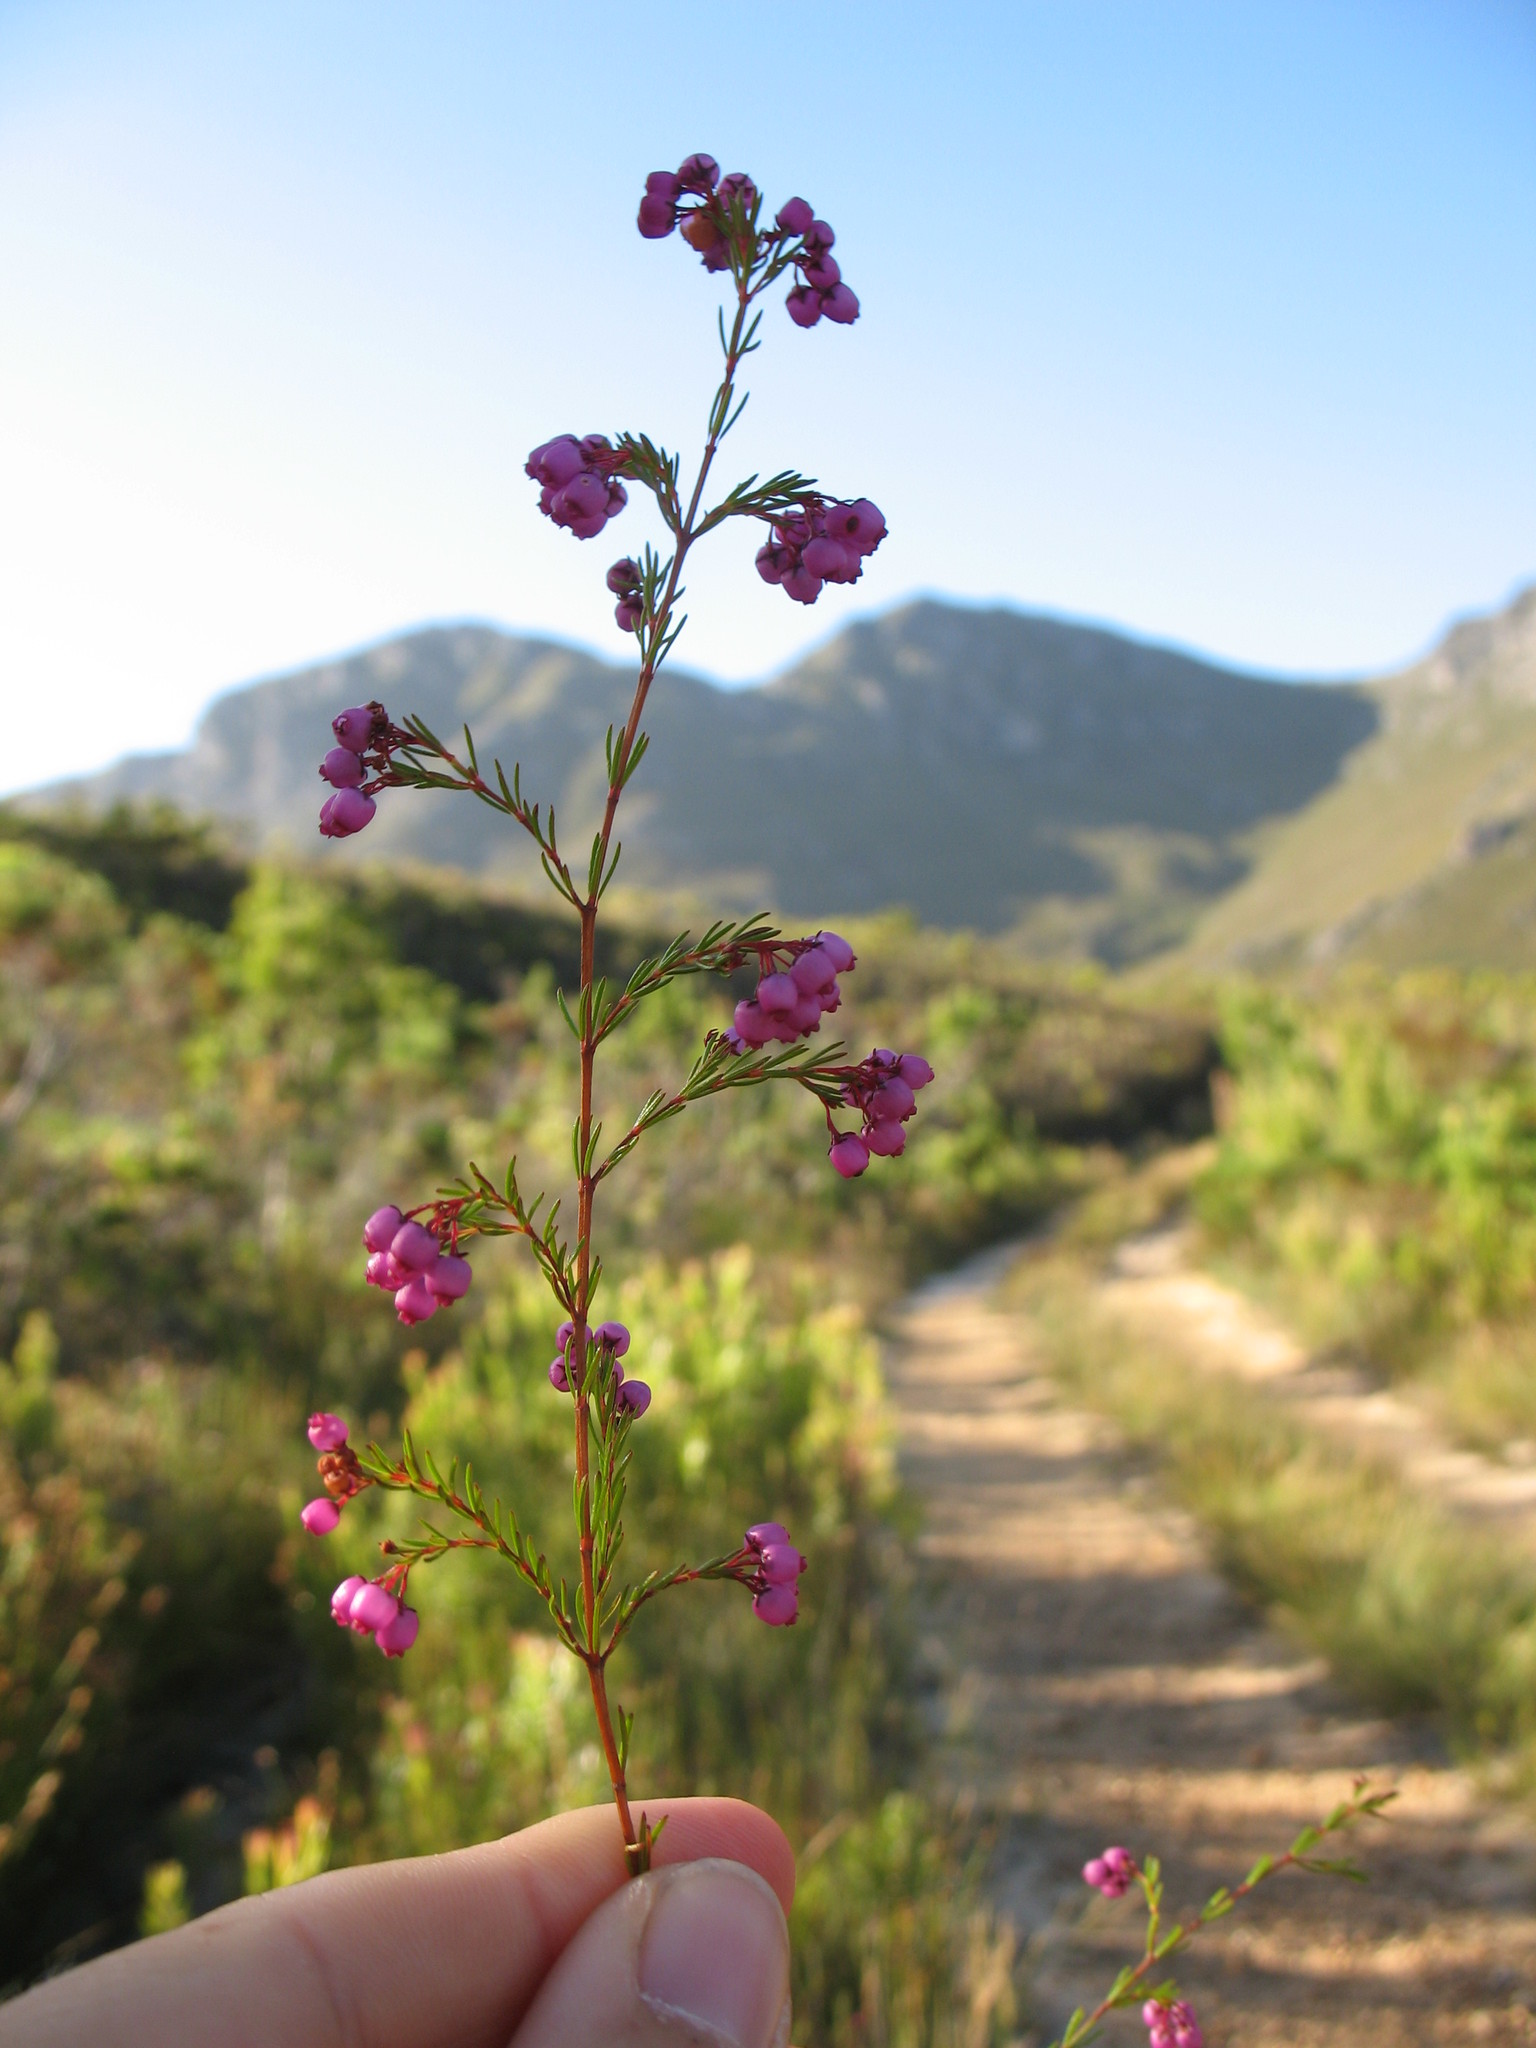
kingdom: Plantae
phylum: Tracheophyta
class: Magnoliopsida
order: Ericales
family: Ericaceae
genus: Erica
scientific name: Erica multumbellifera
